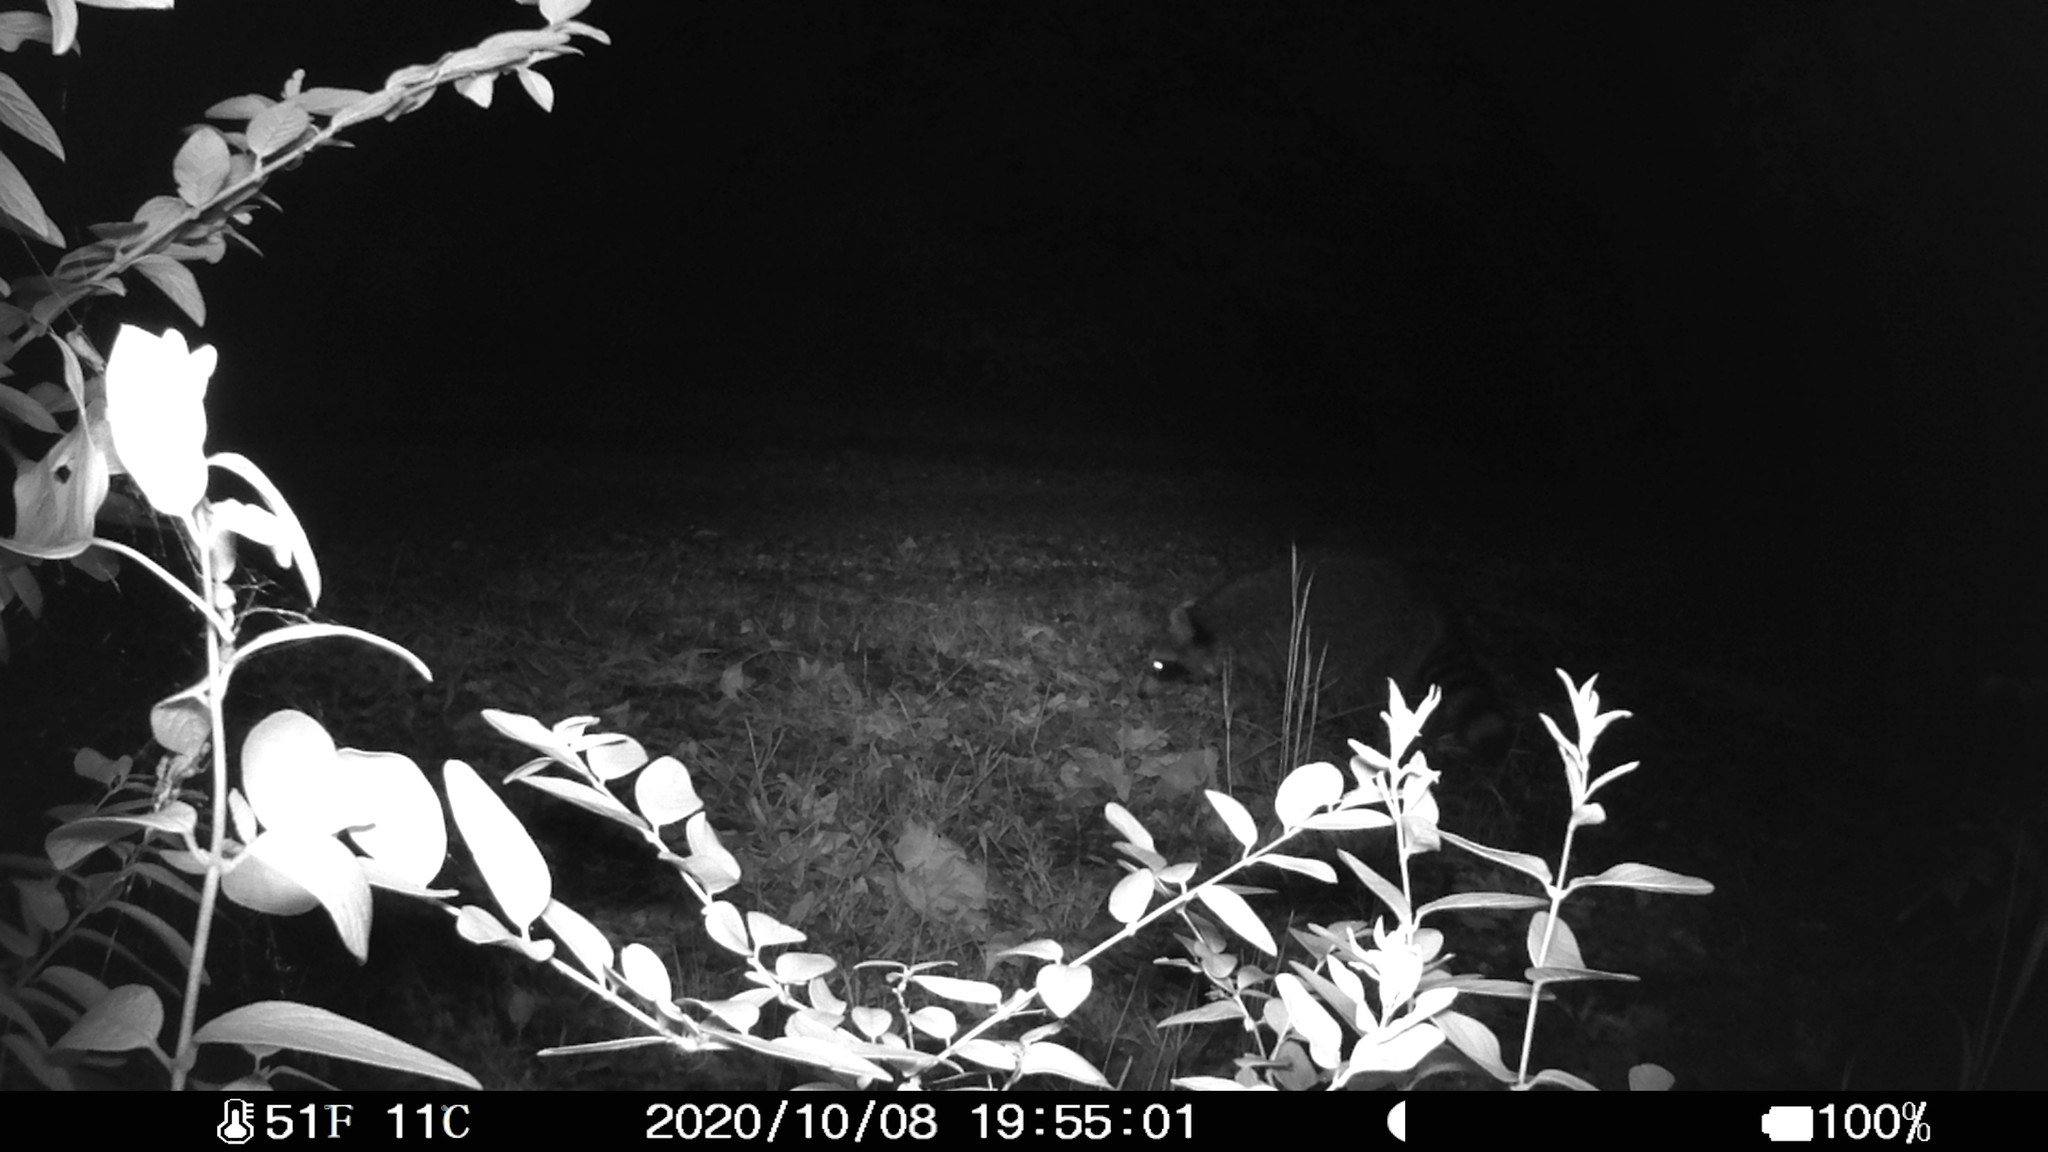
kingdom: Animalia
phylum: Chordata
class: Mammalia
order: Carnivora
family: Procyonidae
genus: Procyon
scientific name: Procyon lotor
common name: Raccoon
